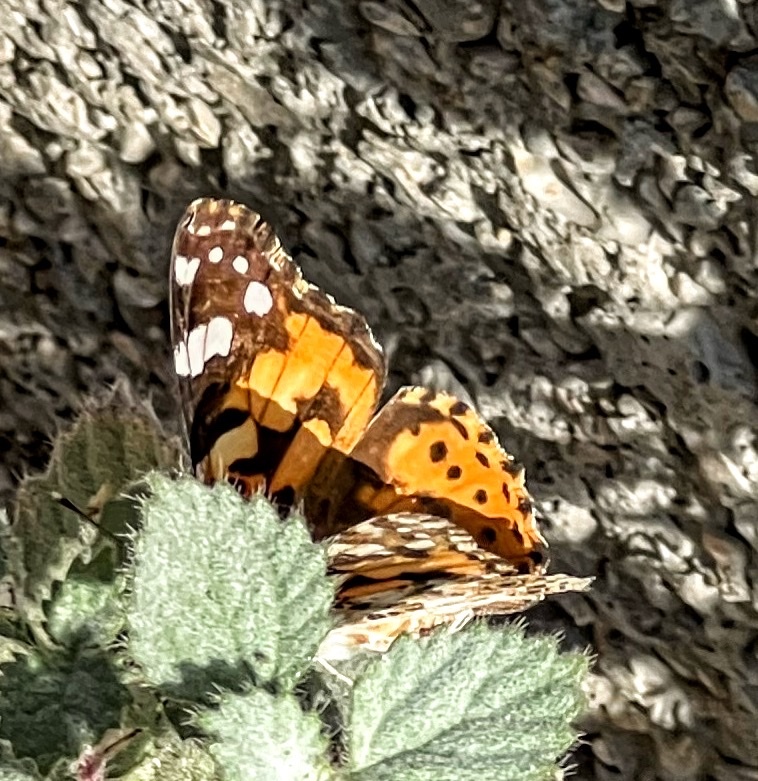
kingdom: Animalia
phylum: Arthropoda
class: Insecta
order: Lepidoptera
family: Nymphalidae
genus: Vanessa
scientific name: Vanessa cardui
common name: Painted lady
